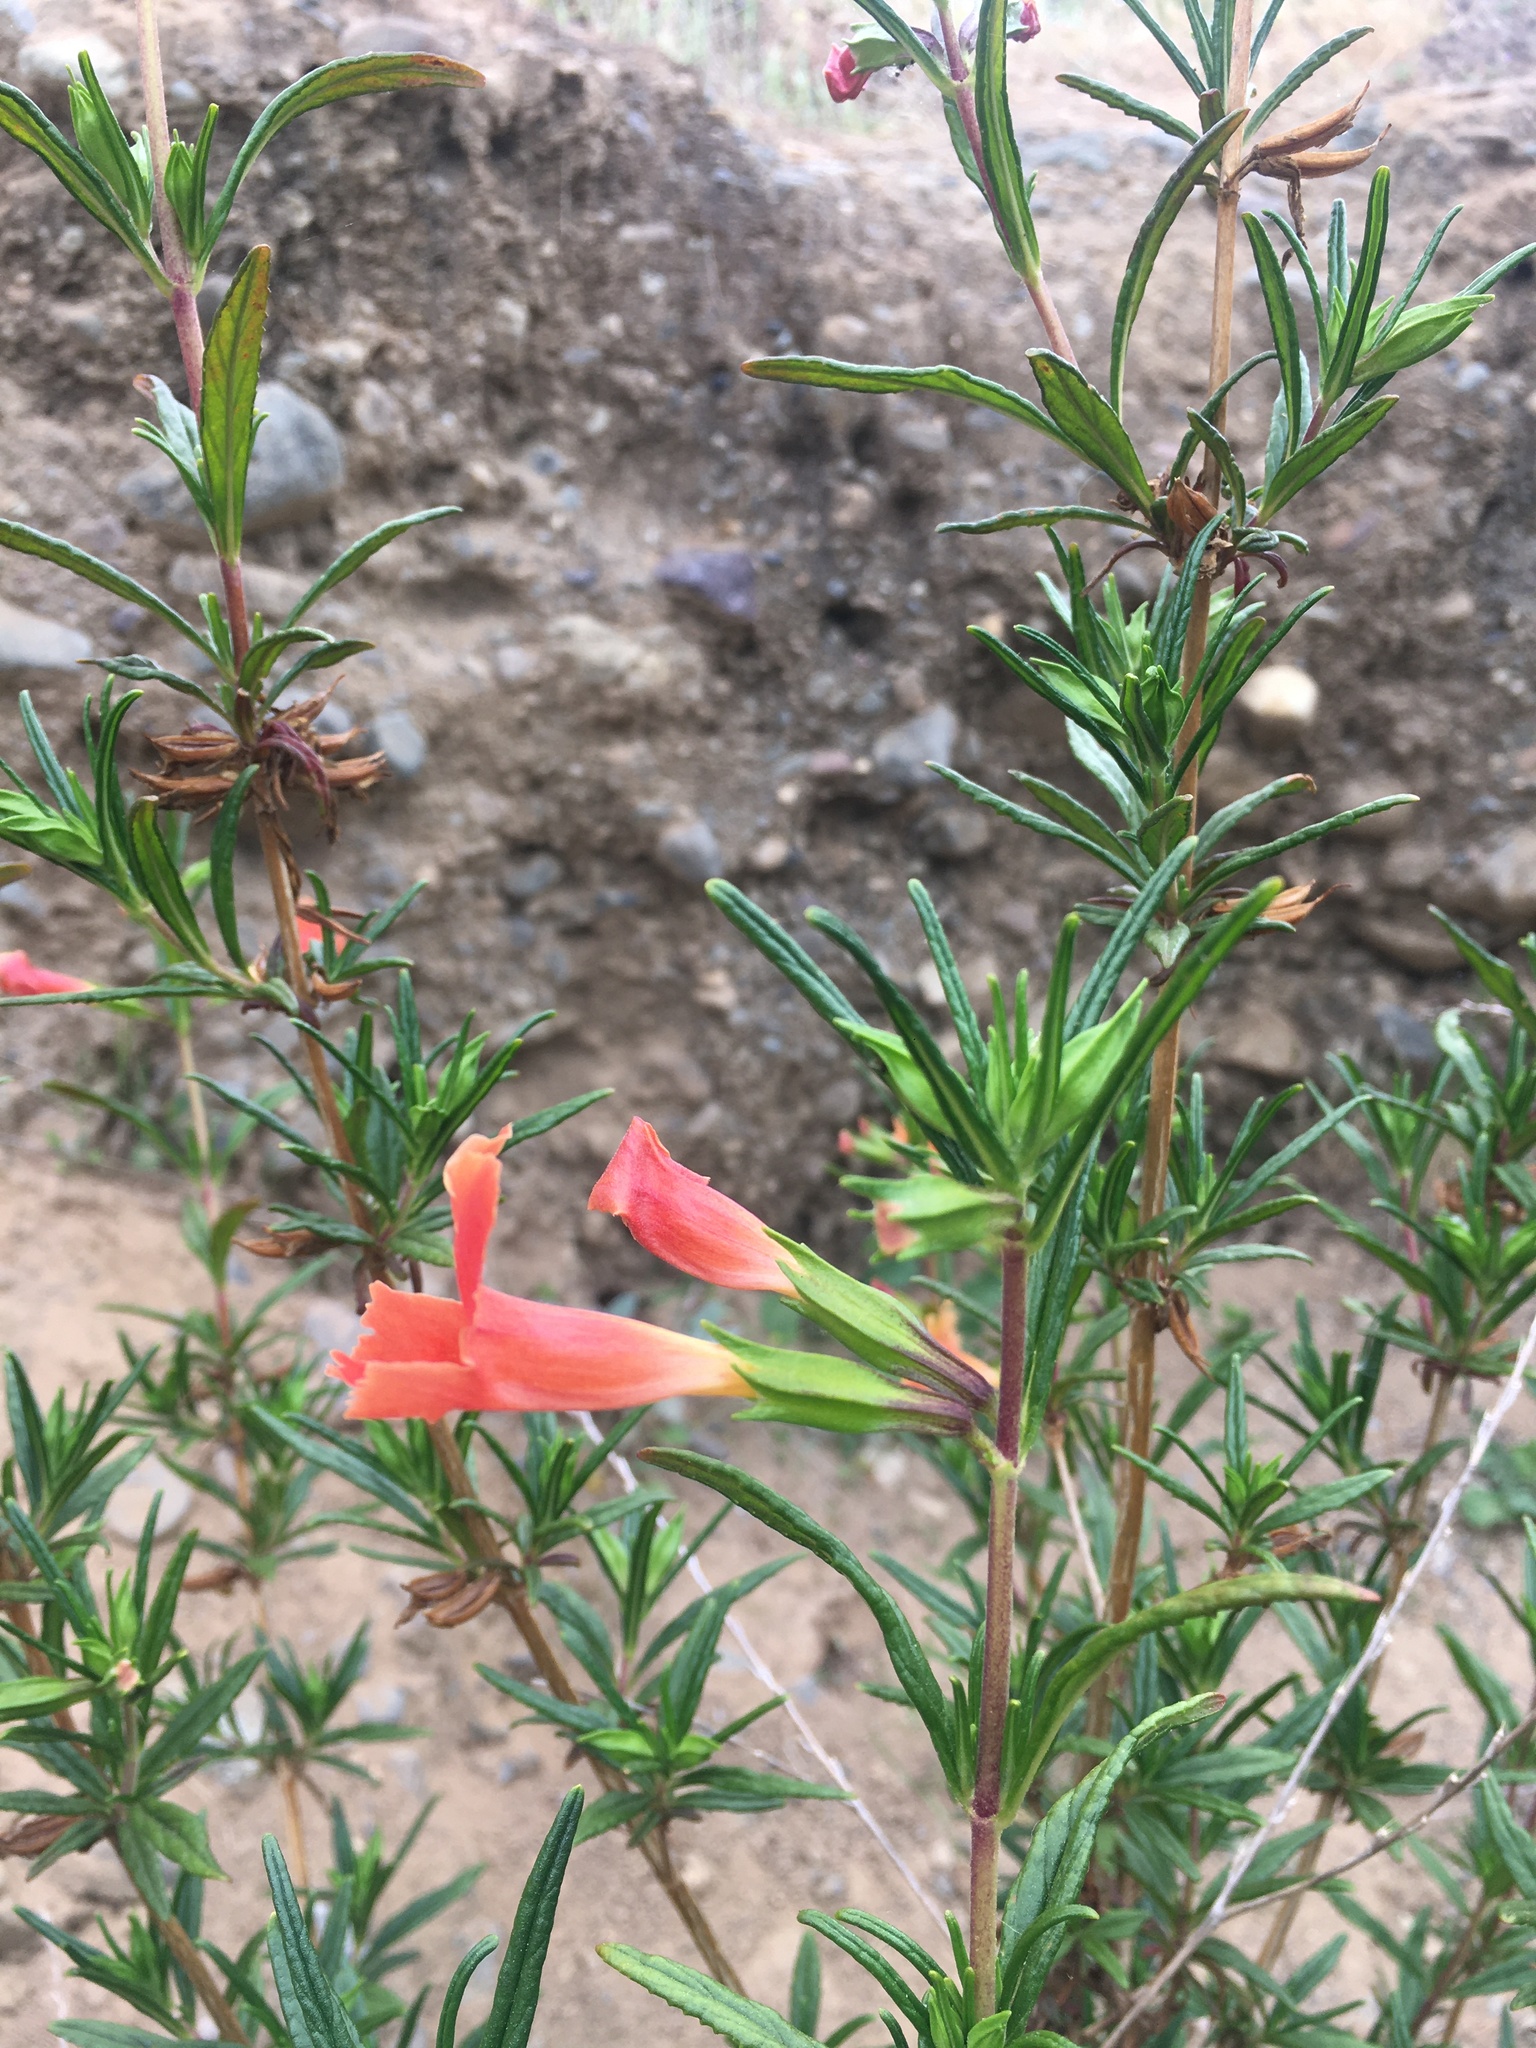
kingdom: Plantae
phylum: Tracheophyta
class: Magnoliopsida
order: Lamiales
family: Phrymaceae
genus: Diplacus
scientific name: Diplacus australis
